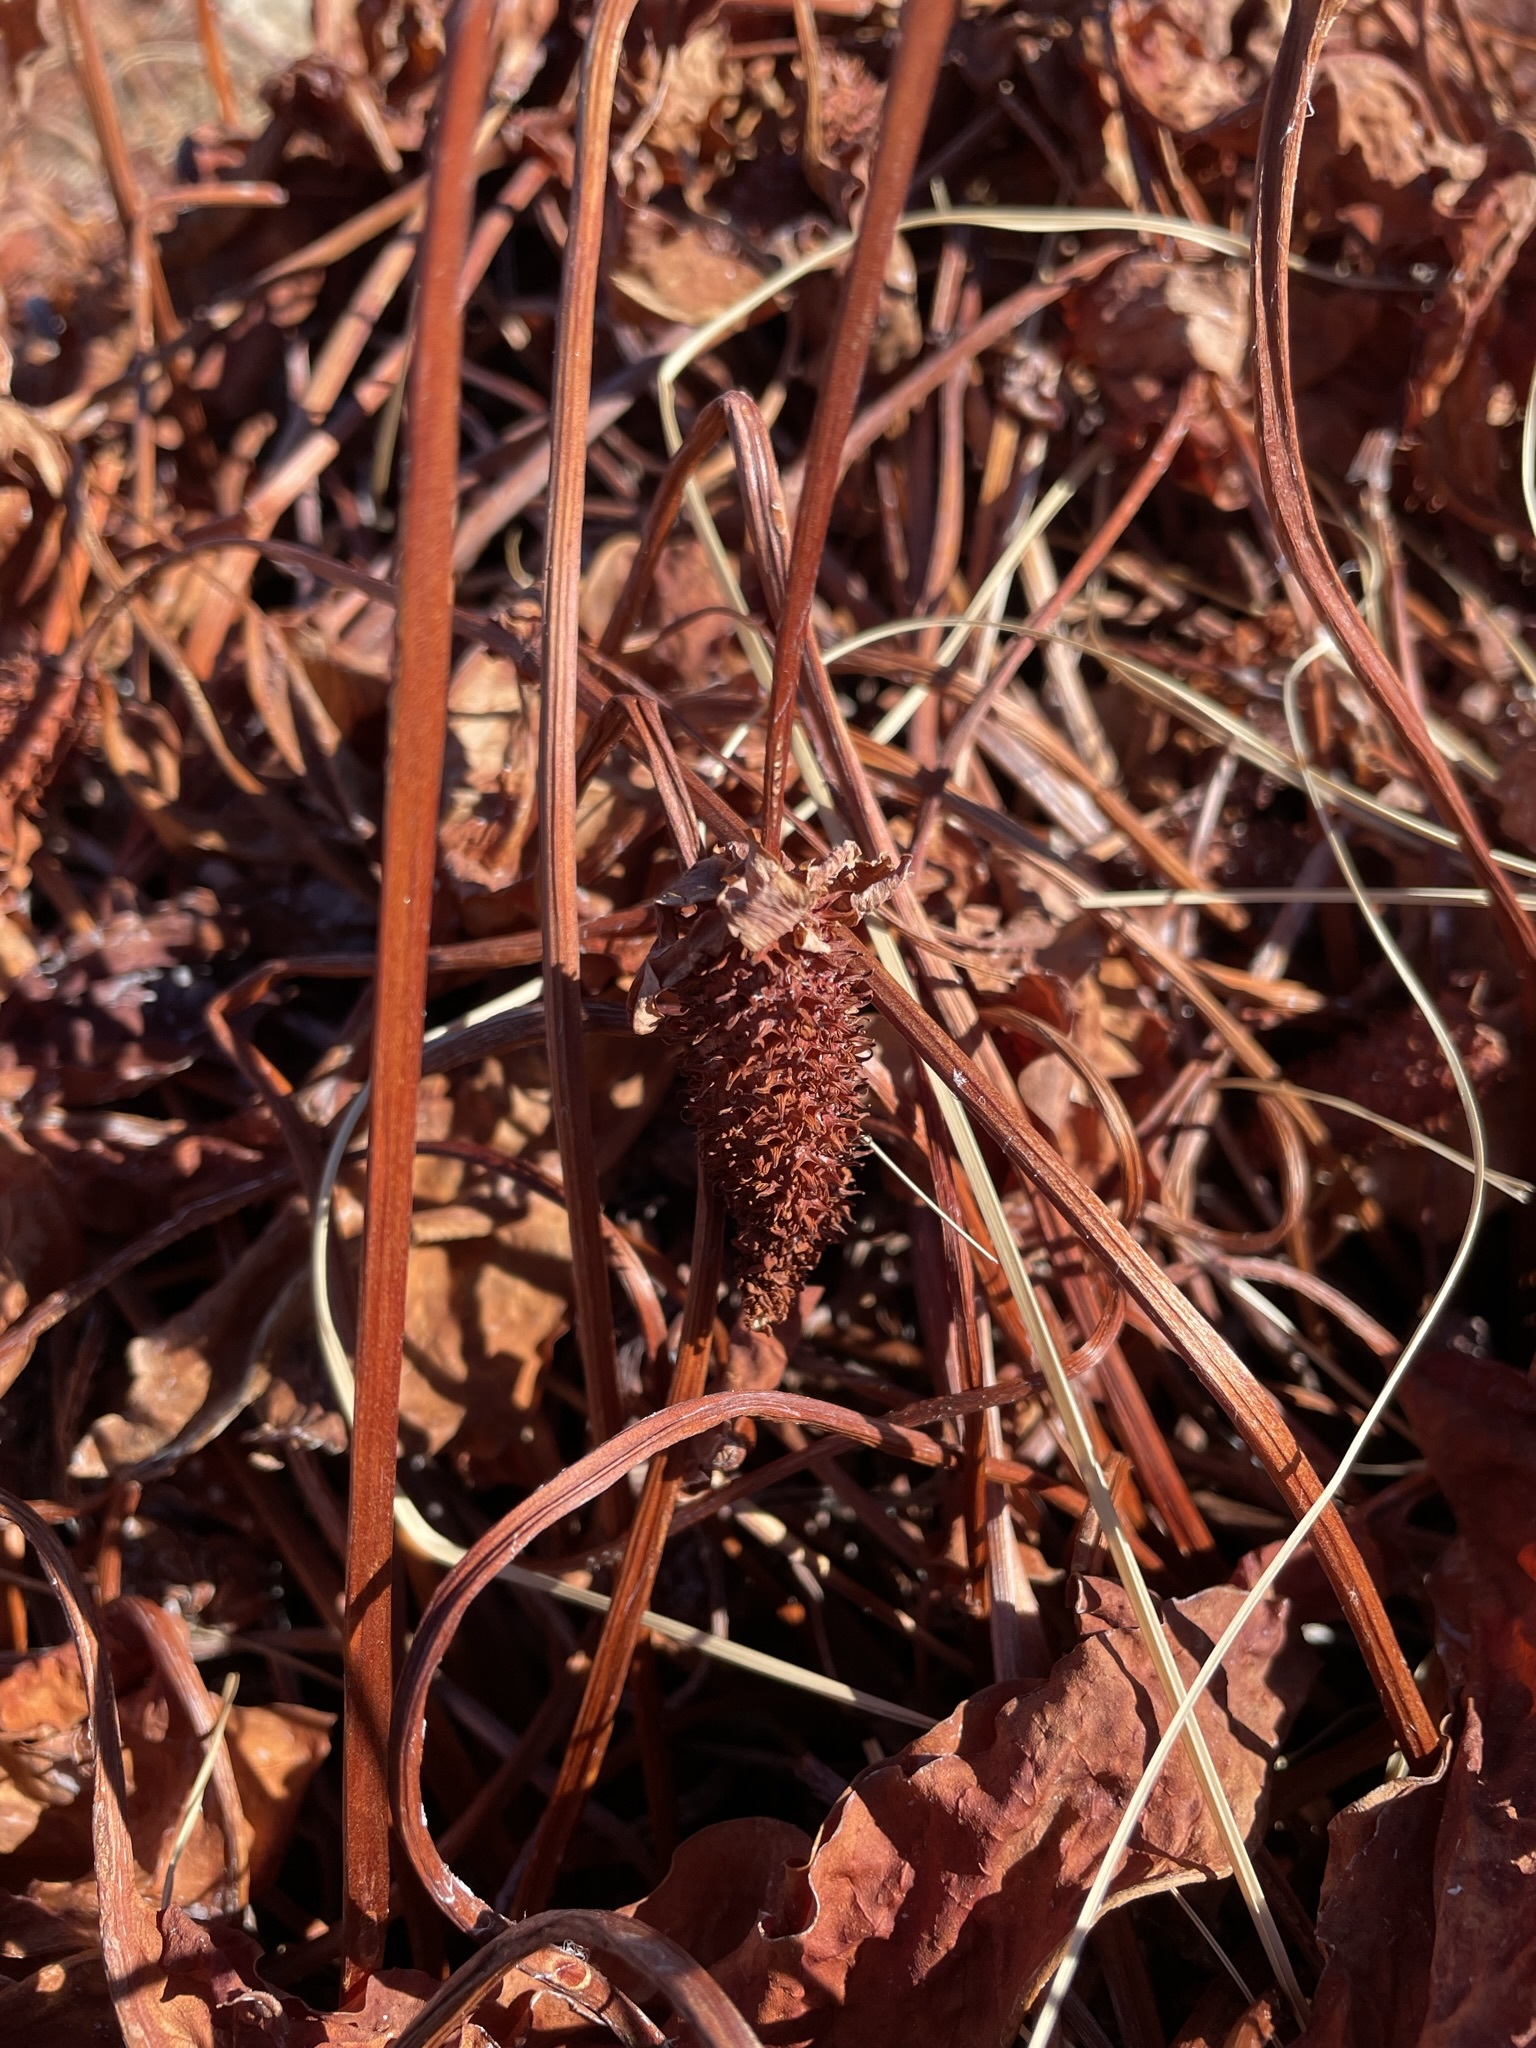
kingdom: Plantae
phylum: Tracheophyta
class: Magnoliopsida
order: Piperales
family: Saururaceae
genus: Anemopsis
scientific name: Anemopsis californica
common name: Apache-beads
